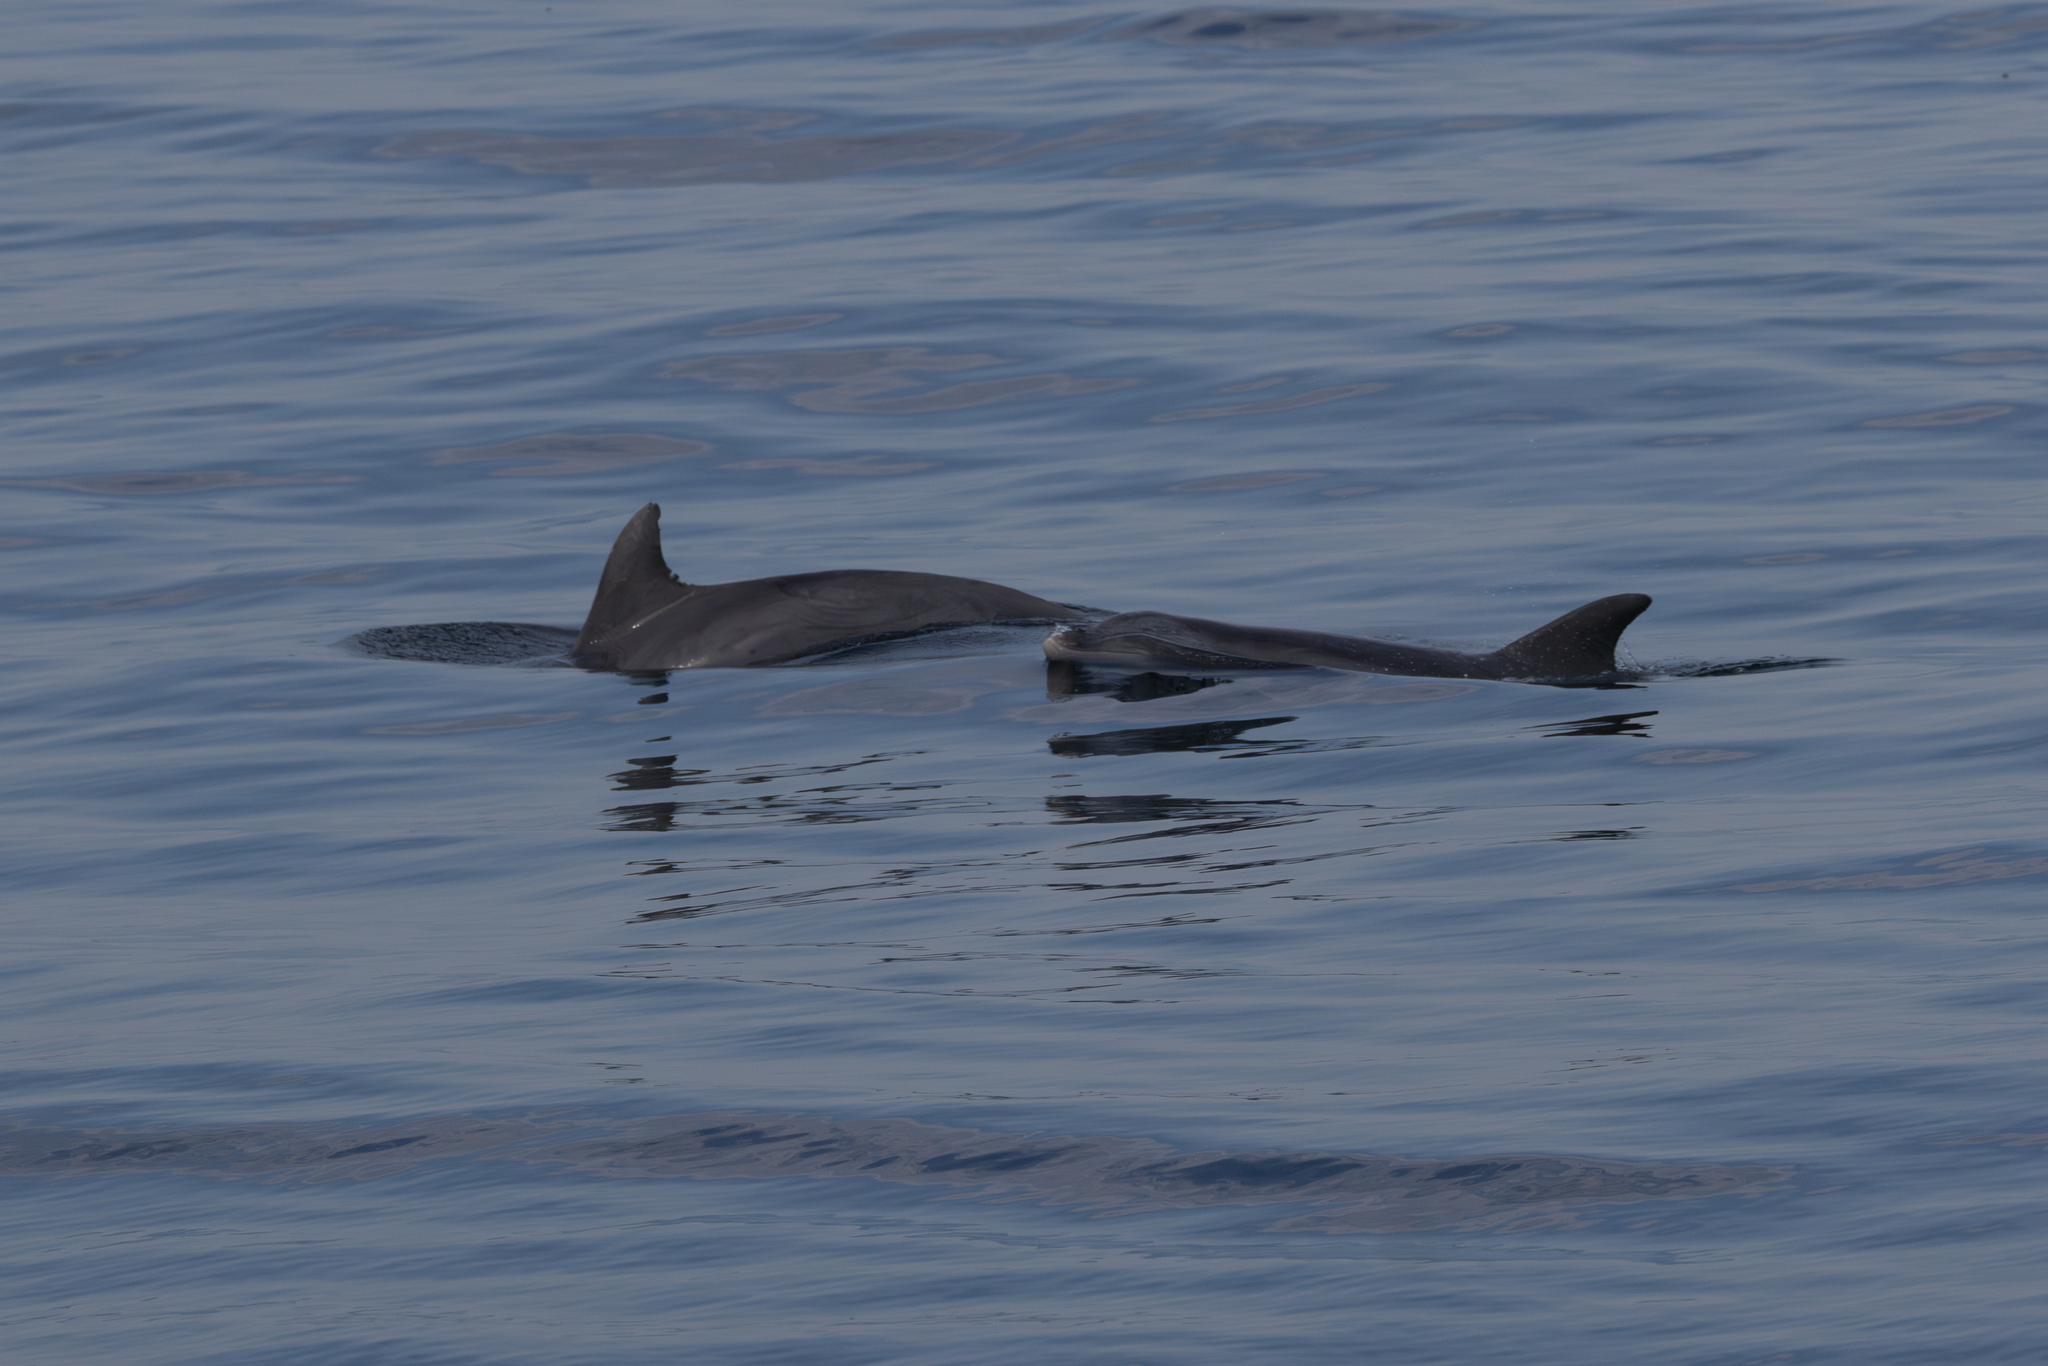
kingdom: Animalia
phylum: Chordata
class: Mammalia
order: Cetacea
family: Delphinidae
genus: Tursiops
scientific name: Tursiops truncatus
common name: Bottlenose dolphin
